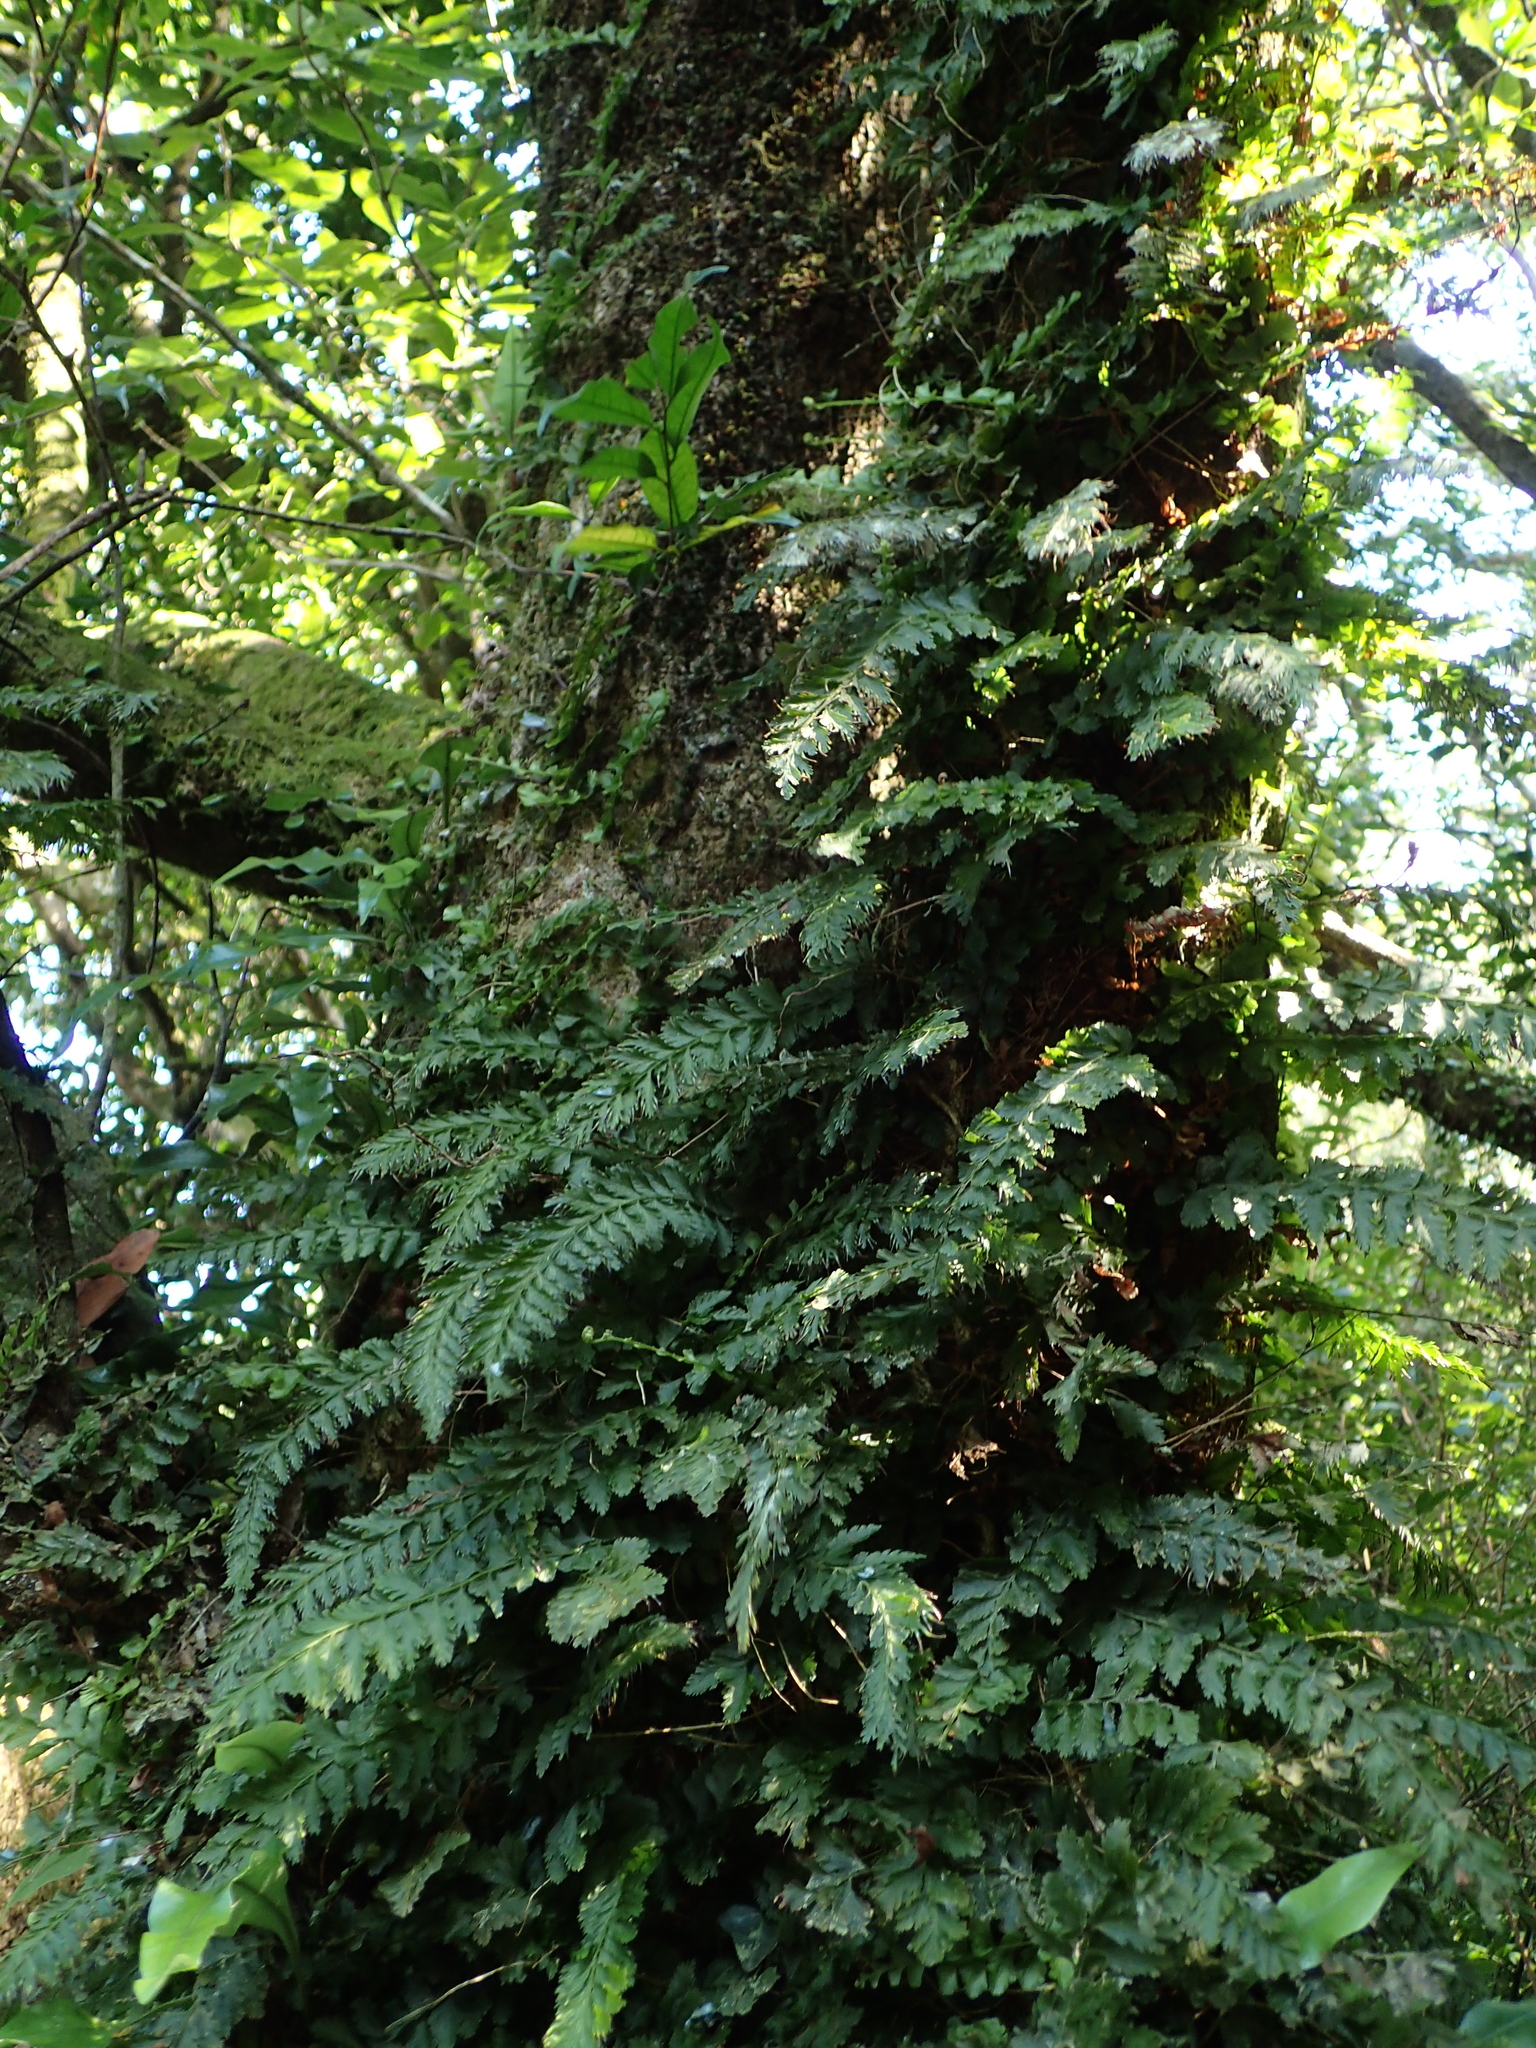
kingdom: Plantae
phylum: Tracheophyta
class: Polypodiopsida
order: Hymenophyllales
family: Hymenophyllaceae
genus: Vandenboschia
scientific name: Vandenboschia auriculata
